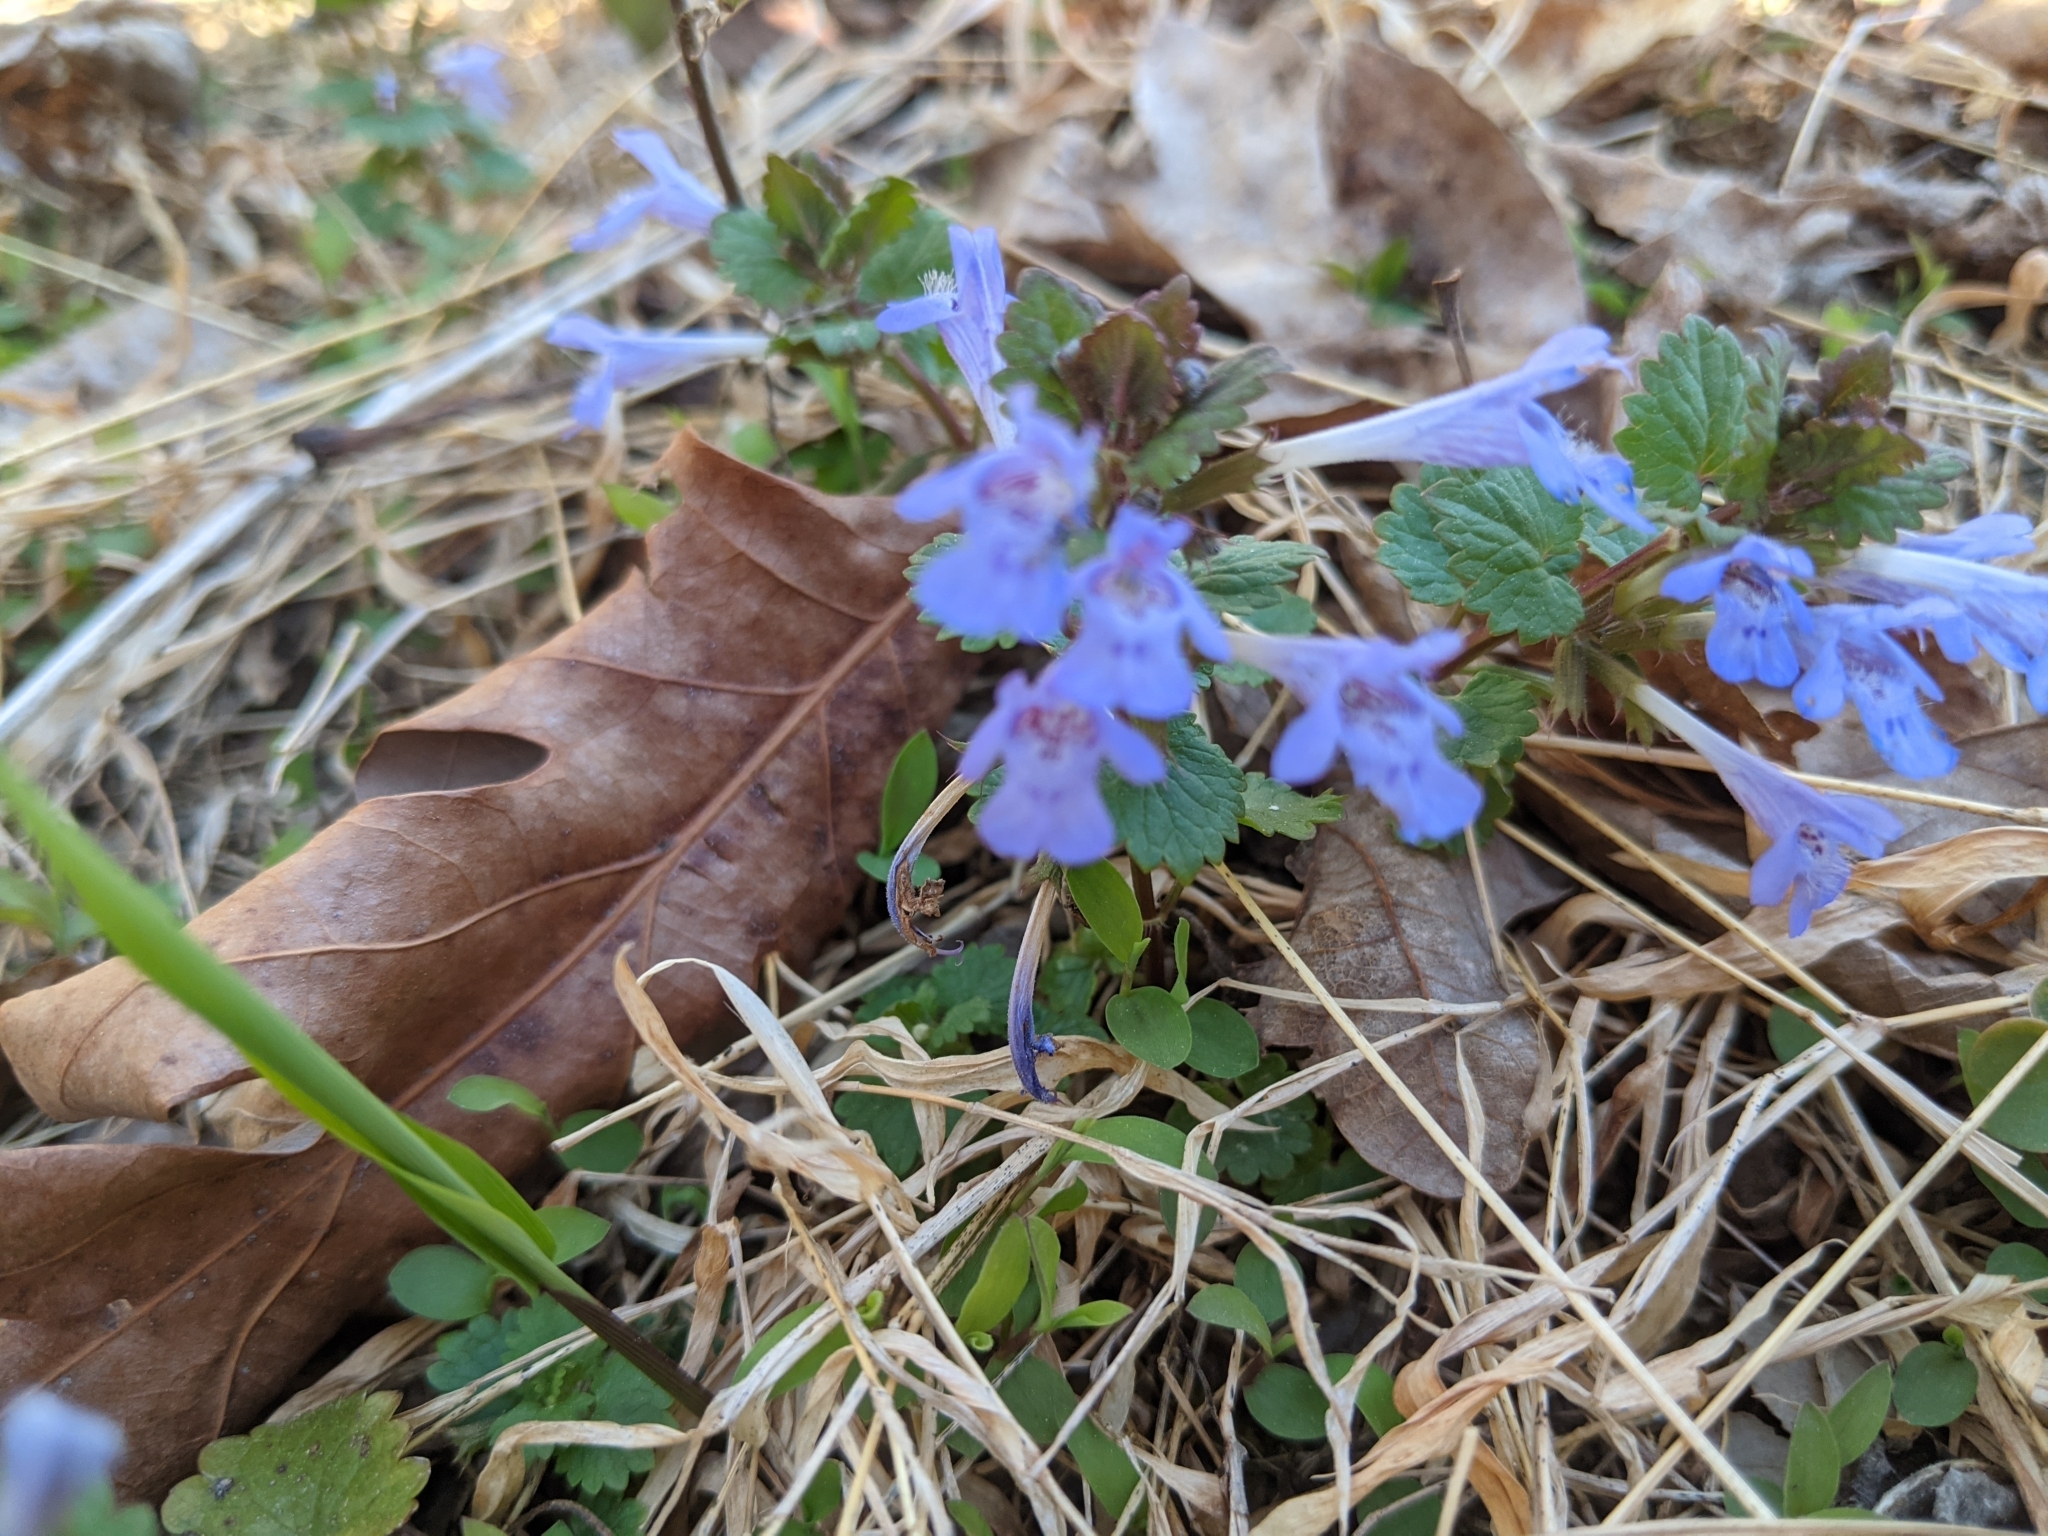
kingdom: Plantae
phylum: Tracheophyta
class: Magnoliopsida
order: Lamiales
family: Lamiaceae
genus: Glechoma
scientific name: Glechoma hederacea
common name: Ground ivy
